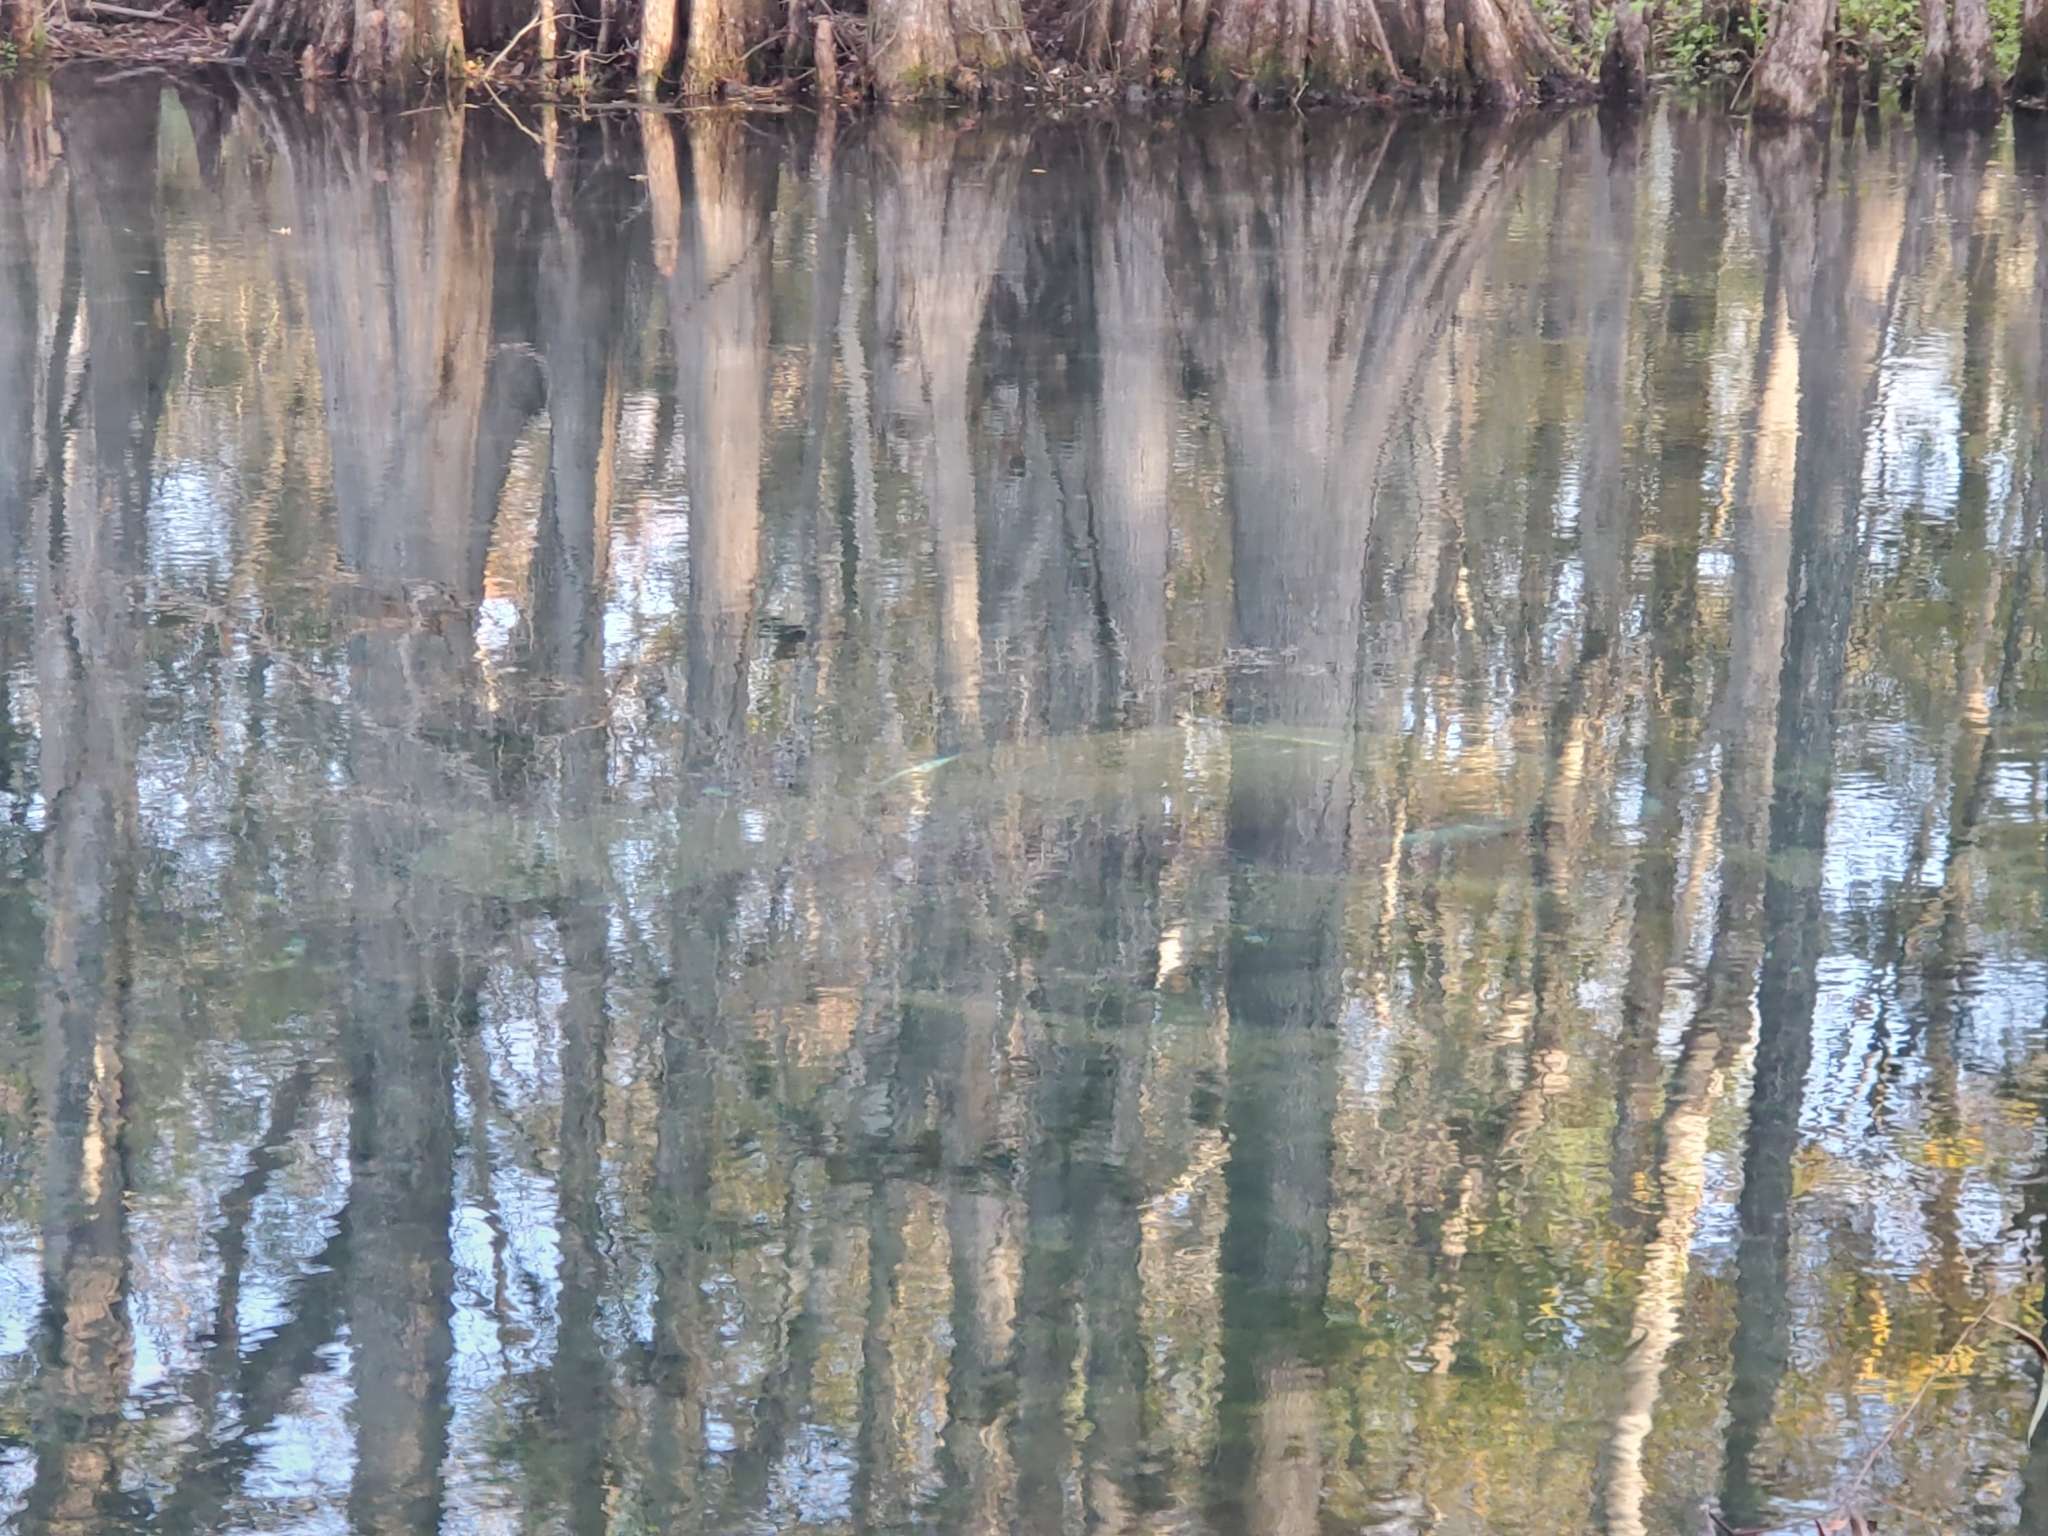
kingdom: Animalia
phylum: Chordata
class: Mammalia
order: Sirenia
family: Trichechidae
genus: Trichechus
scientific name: Trichechus manatus
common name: West indian manatee
